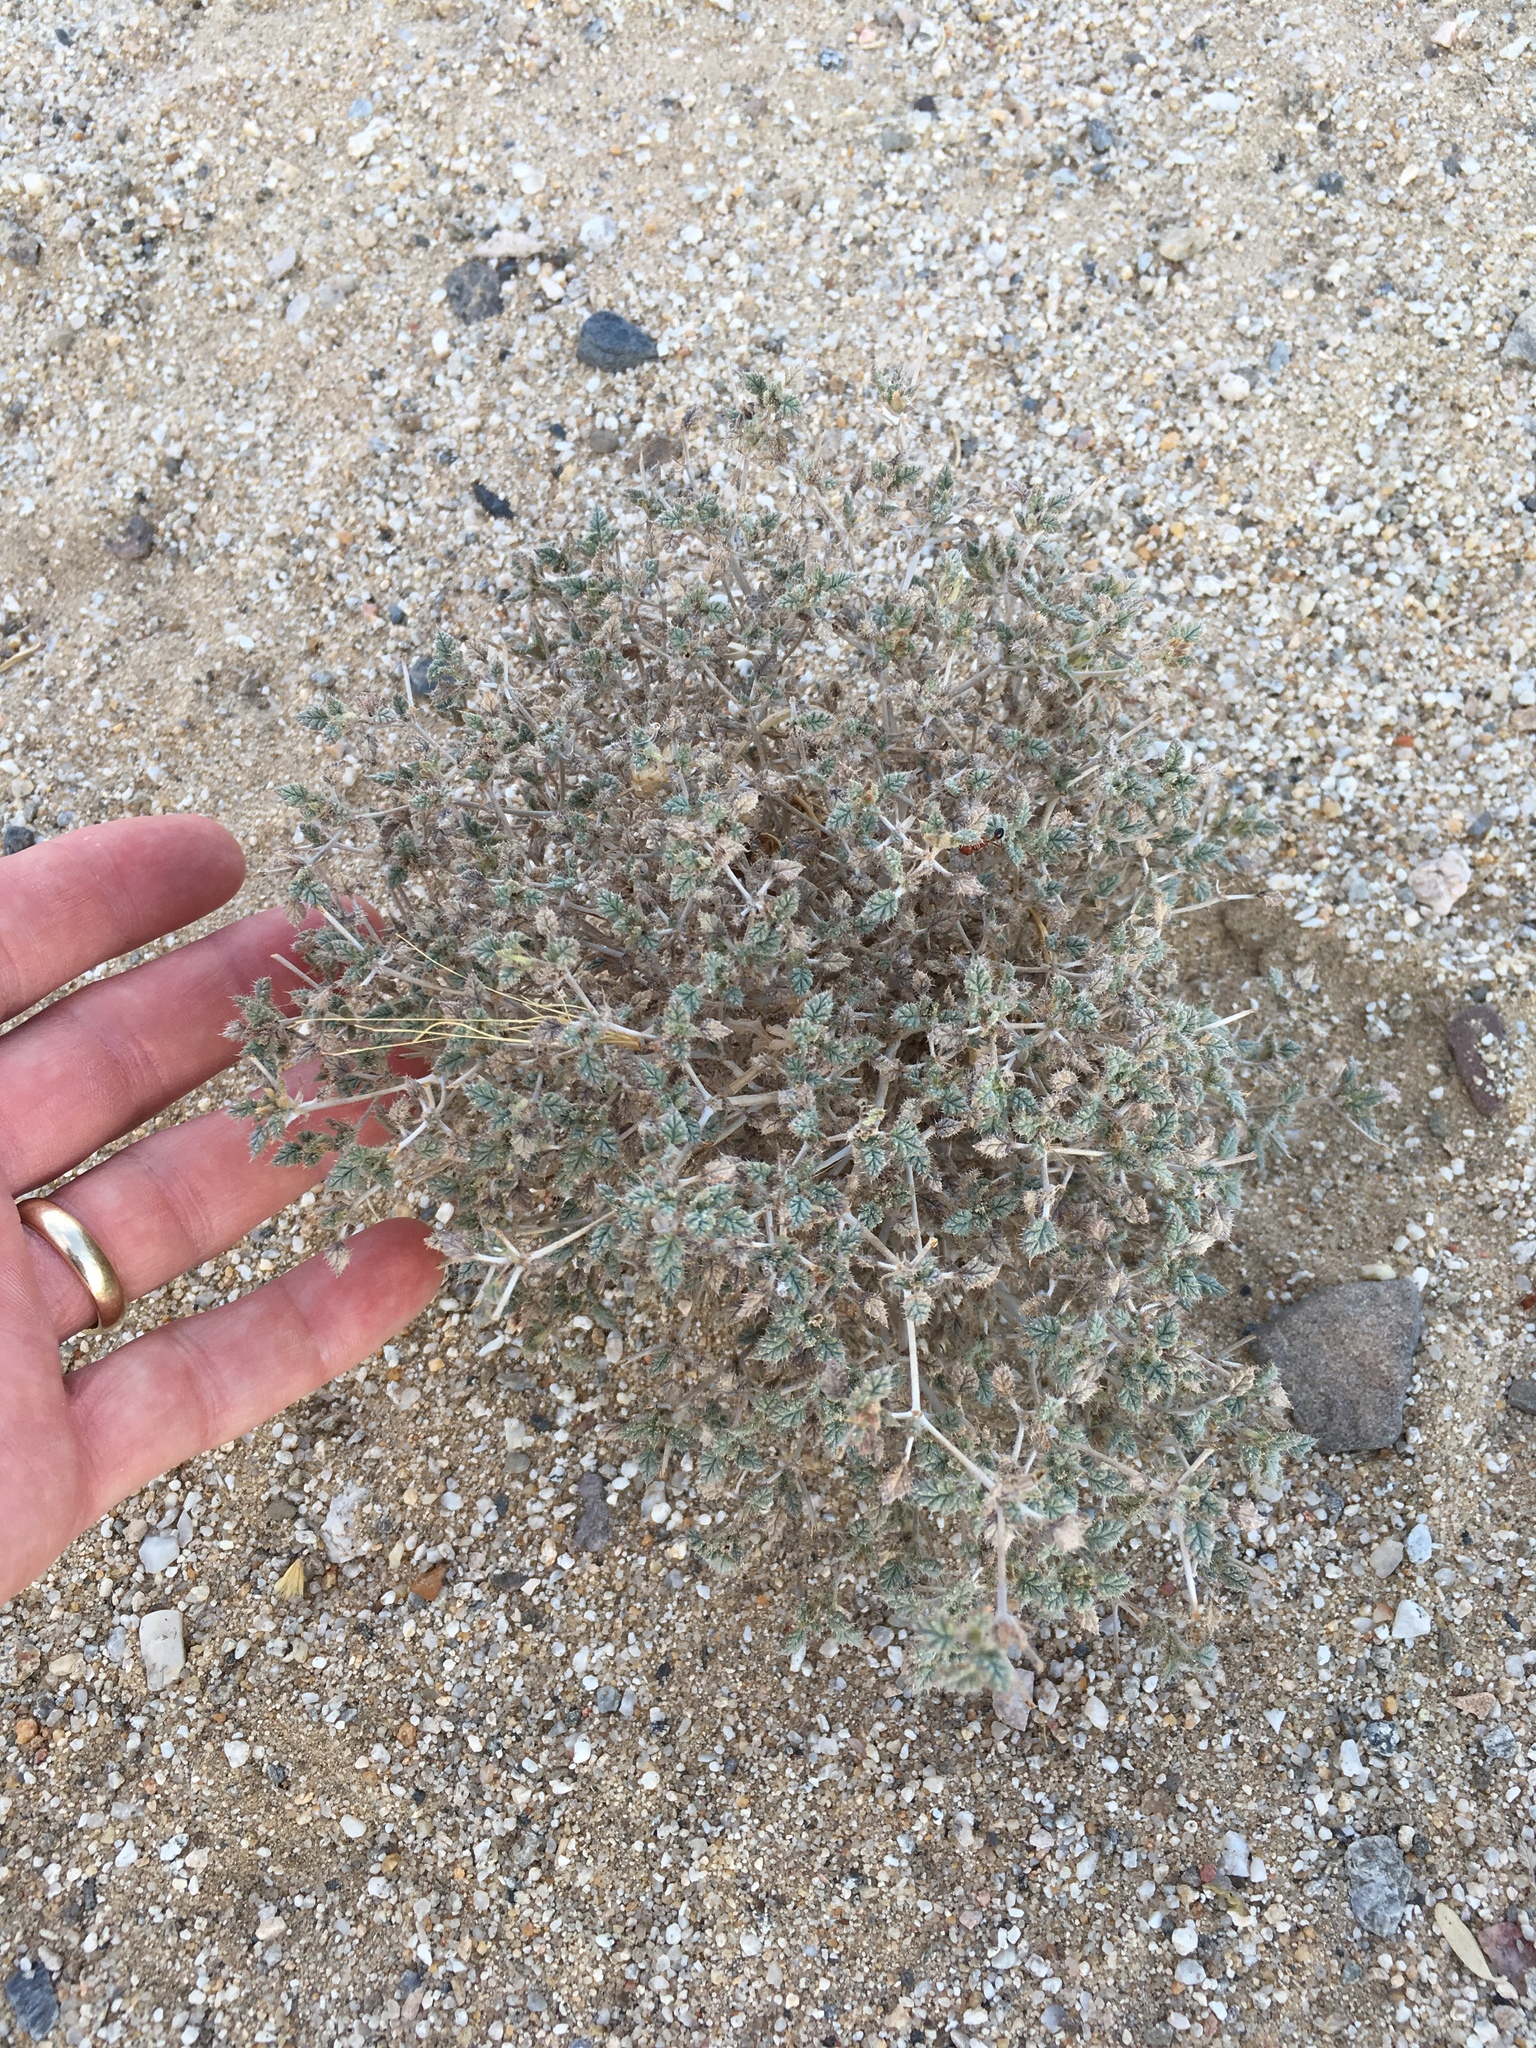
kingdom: Plantae
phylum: Tracheophyta
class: Magnoliopsida
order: Boraginales
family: Ehretiaceae
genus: Tiquilia
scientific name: Tiquilia palmeri
